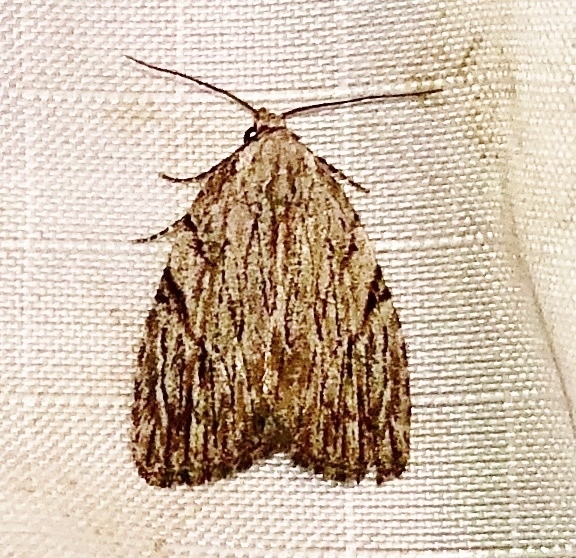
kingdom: Animalia
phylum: Arthropoda
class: Insecta
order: Lepidoptera
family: Noctuidae
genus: Balsa
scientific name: Balsa tristrigella
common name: Three-lined balsa moth
